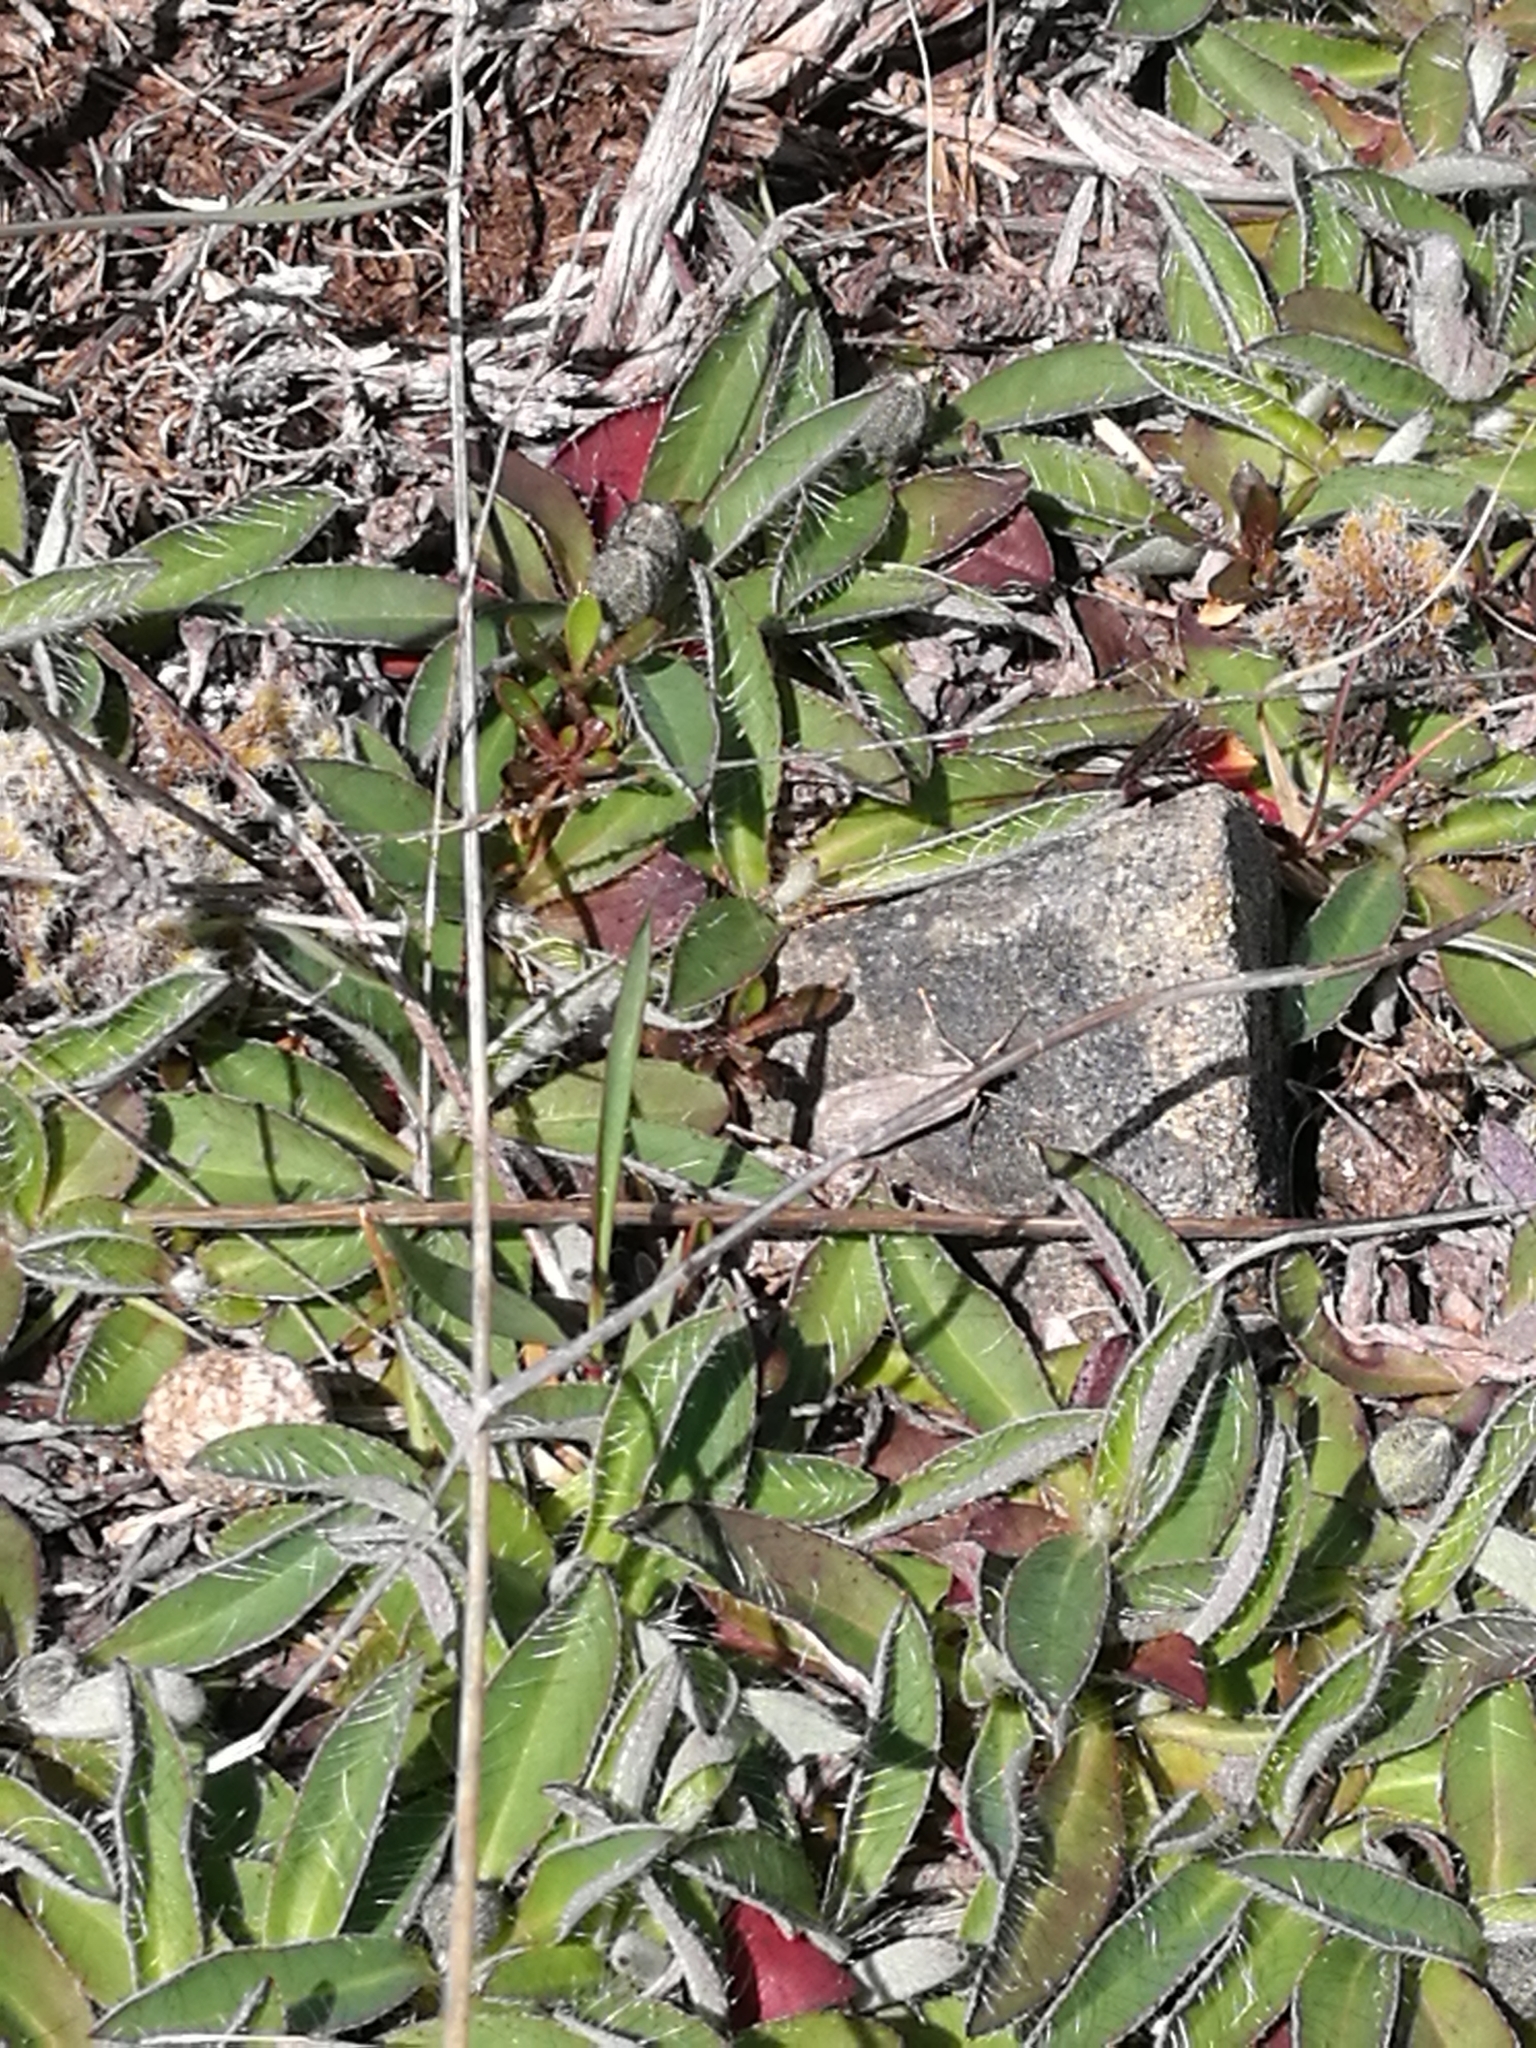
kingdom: Plantae
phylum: Tracheophyta
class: Magnoliopsida
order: Asterales
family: Asteraceae
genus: Pilosella
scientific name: Pilosella officinarum
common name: Mouse-ear hawkweed
